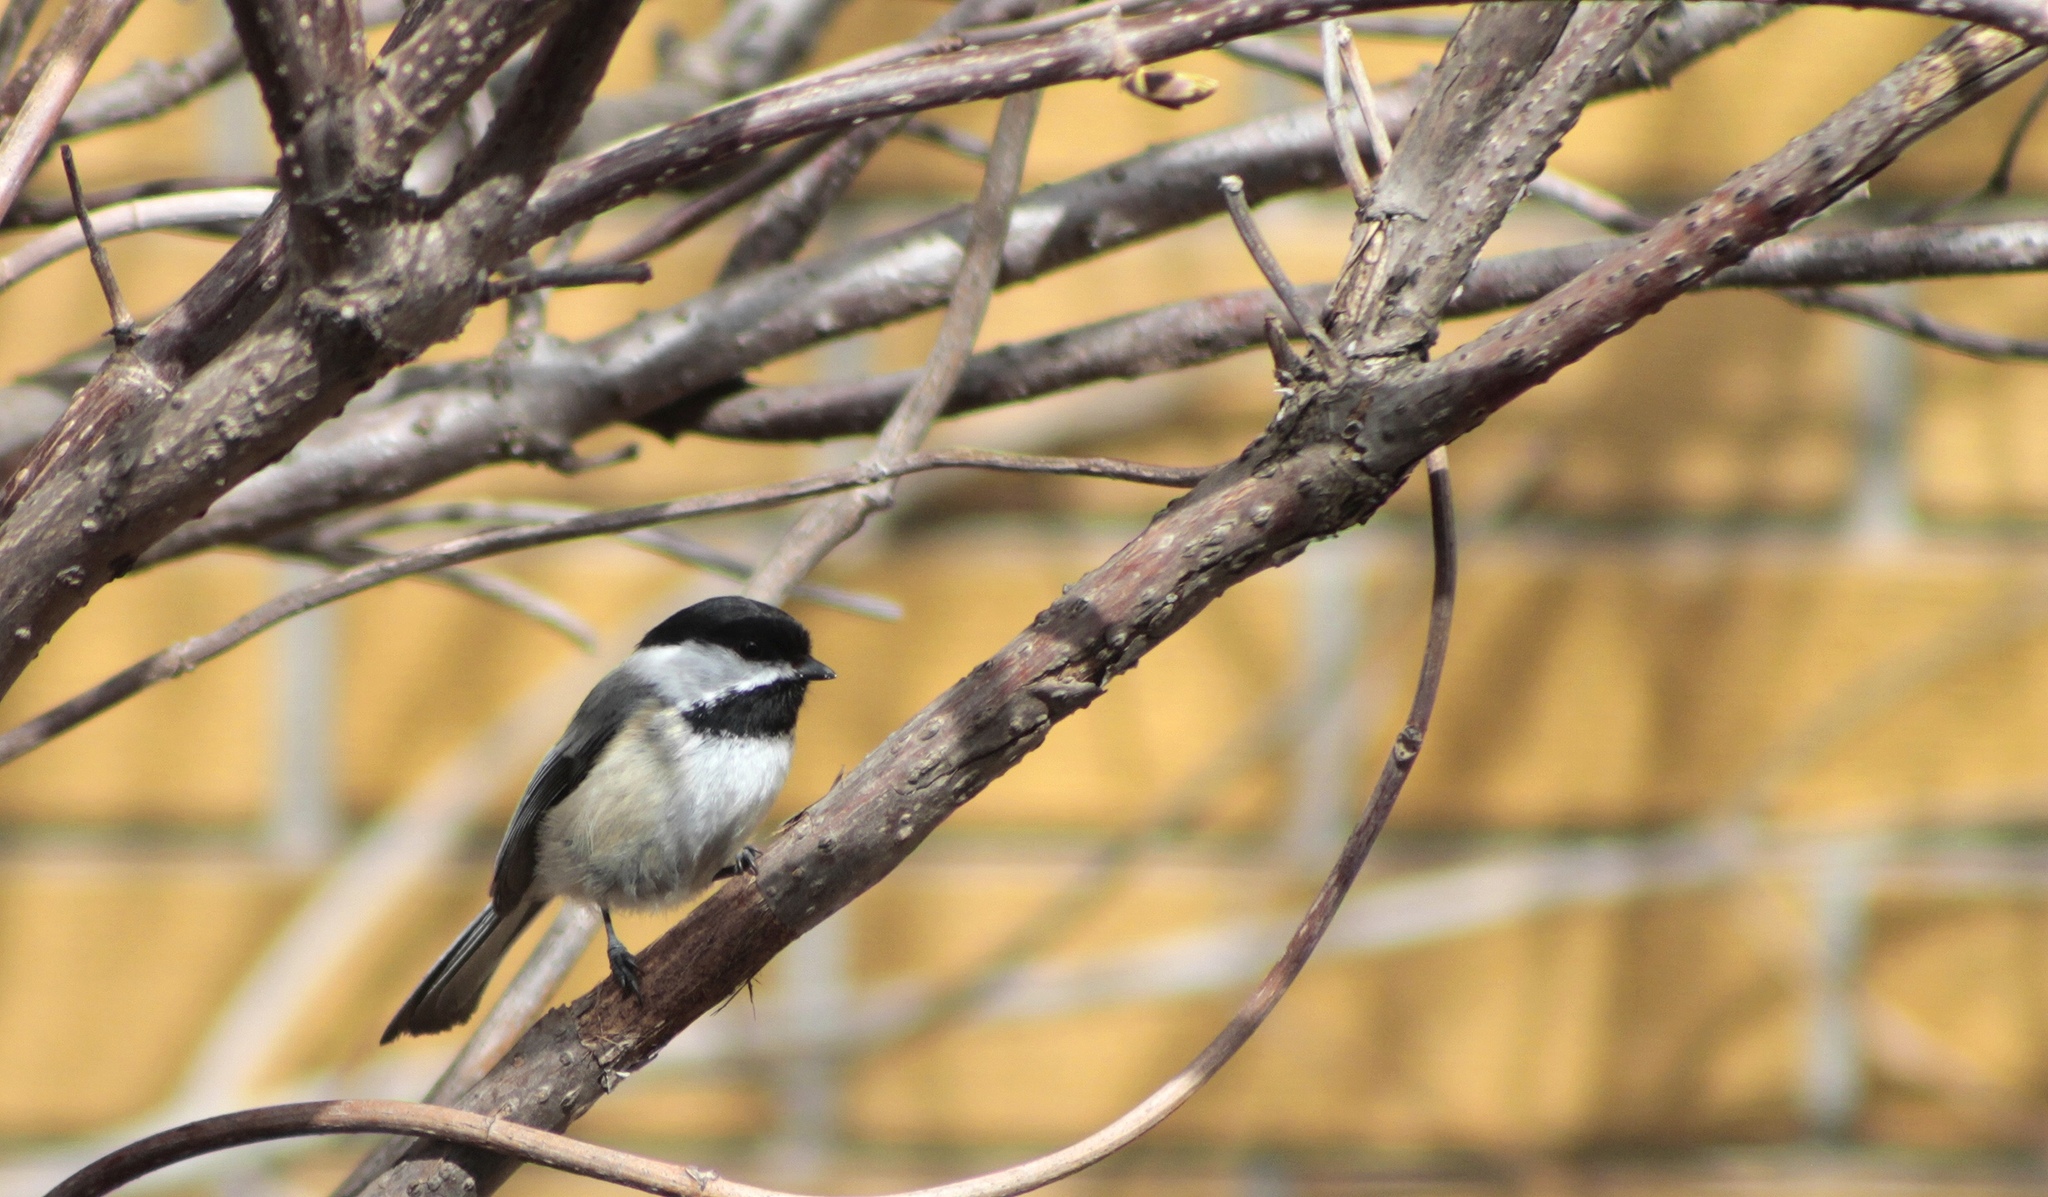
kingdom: Animalia
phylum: Chordata
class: Aves
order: Passeriformes
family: Paridae
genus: Poecile
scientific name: Poecile atricapillus
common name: Black-capped chickadee
